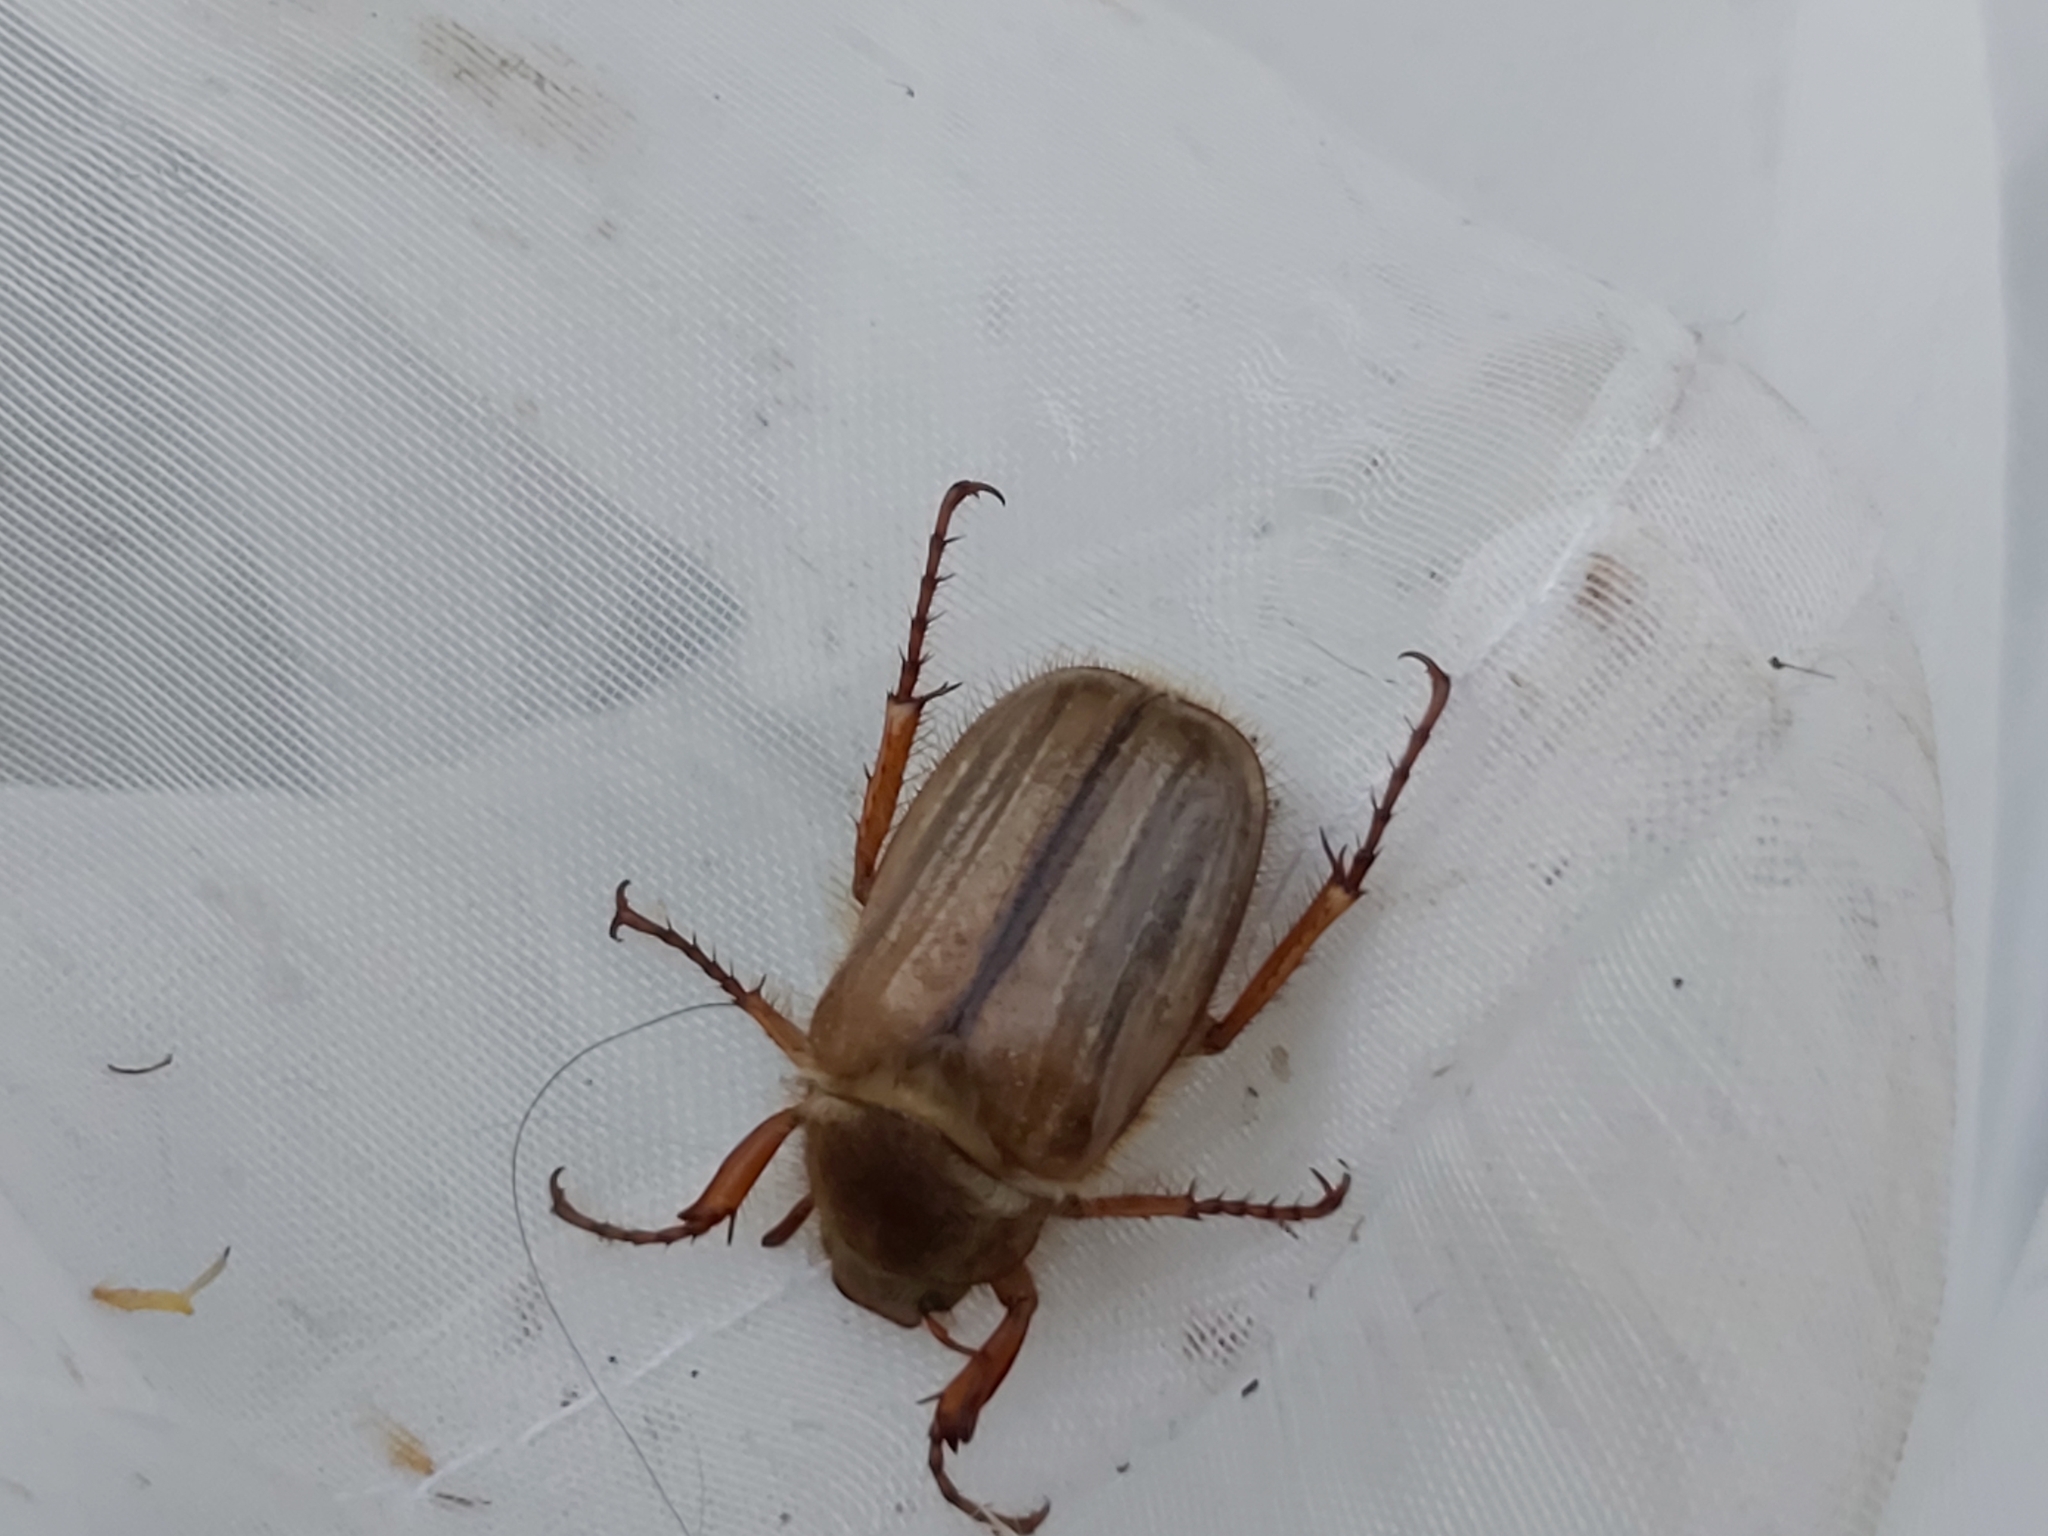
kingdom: Animalia
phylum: Arthropoda
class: Insecta
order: Coleoptera
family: Scarabaeidae
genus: Amphimallon
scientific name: Amphimallon solstitiale
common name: Summer chafer
